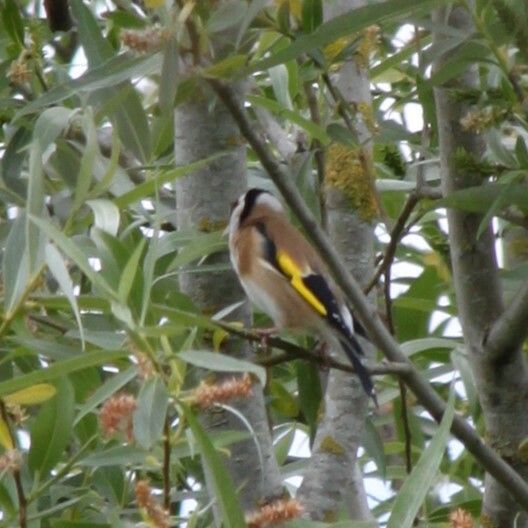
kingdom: Animalia
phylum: Chordata
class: Aves
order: Passeriformes
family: Fringillidae
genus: Carduelis
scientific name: Carduelis carduelis
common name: European goldfinch
